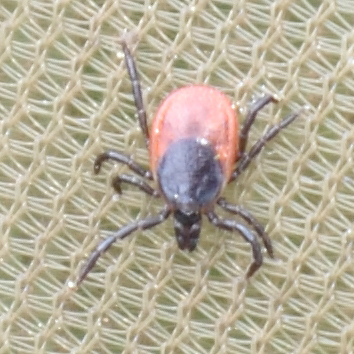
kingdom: Animalia
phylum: Arthropoda
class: Arachnida
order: Ixodida
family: Ixodidae
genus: Ixodes
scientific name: Ixodes ricinus
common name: Castor bean tick
